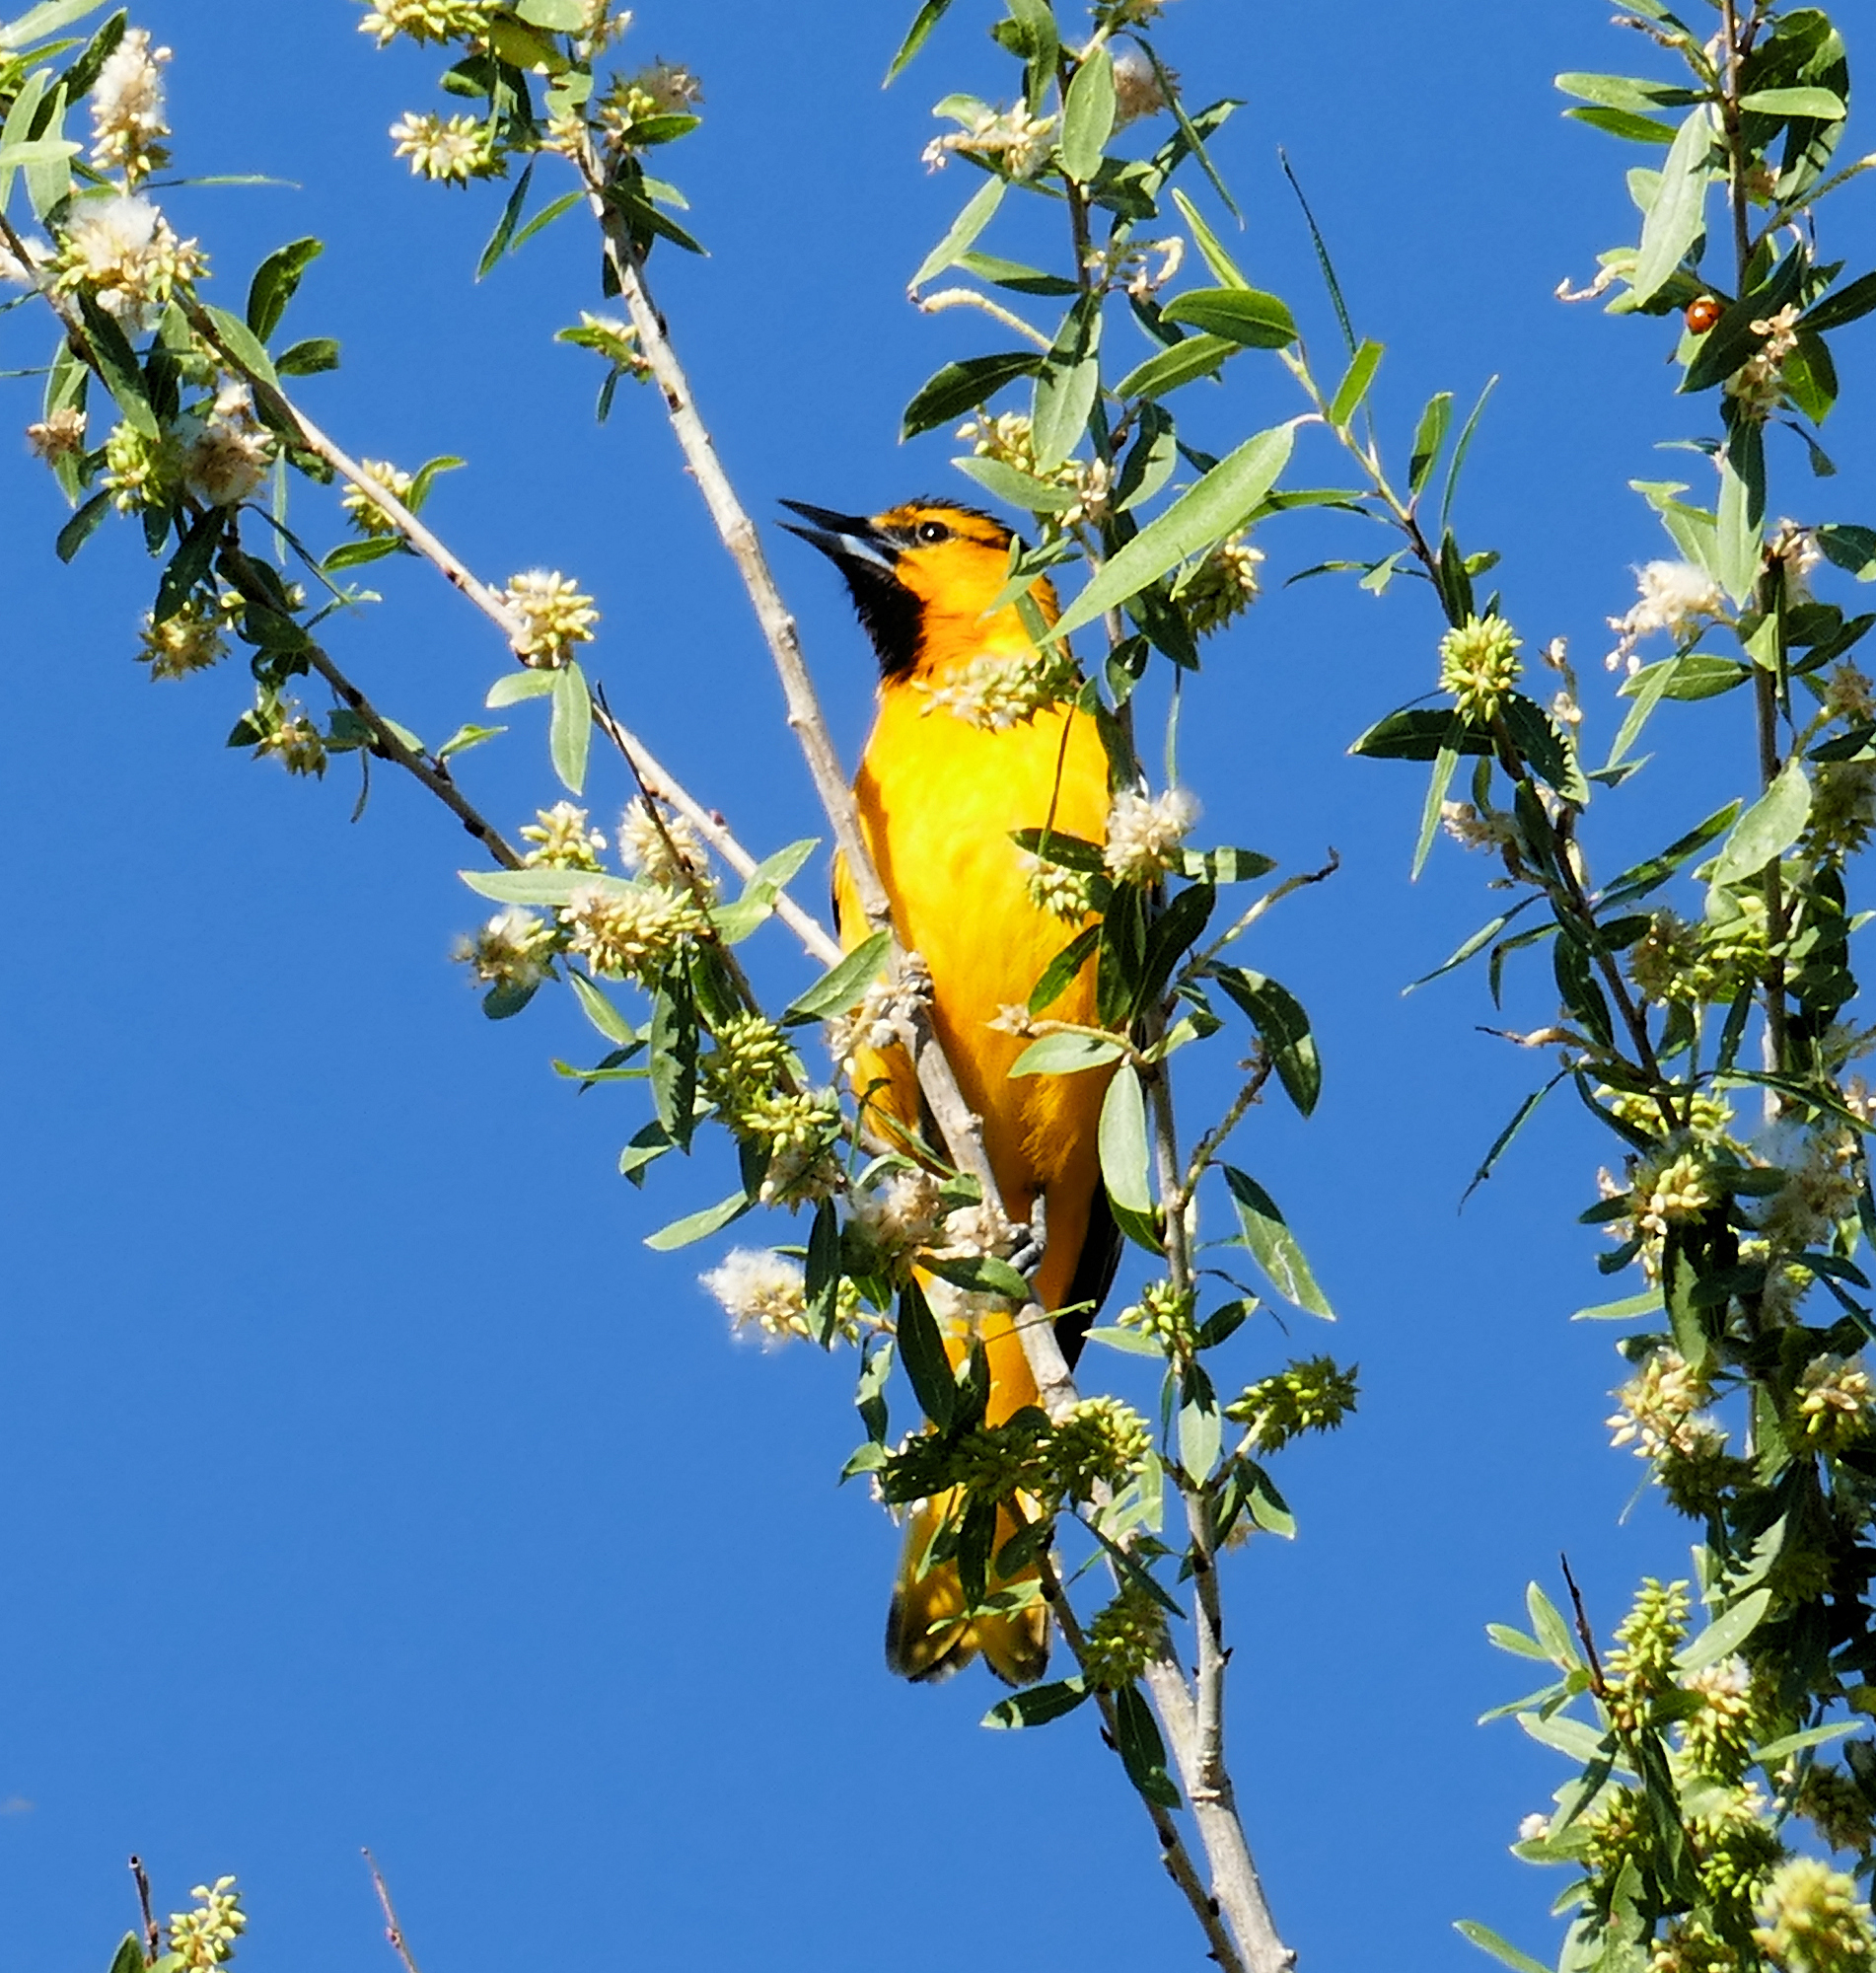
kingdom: Animalia
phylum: Chordata
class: Aves
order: Passeriformes
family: Icteridae
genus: Icterus
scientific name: Icterus bullockii
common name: Bullock's oriole
